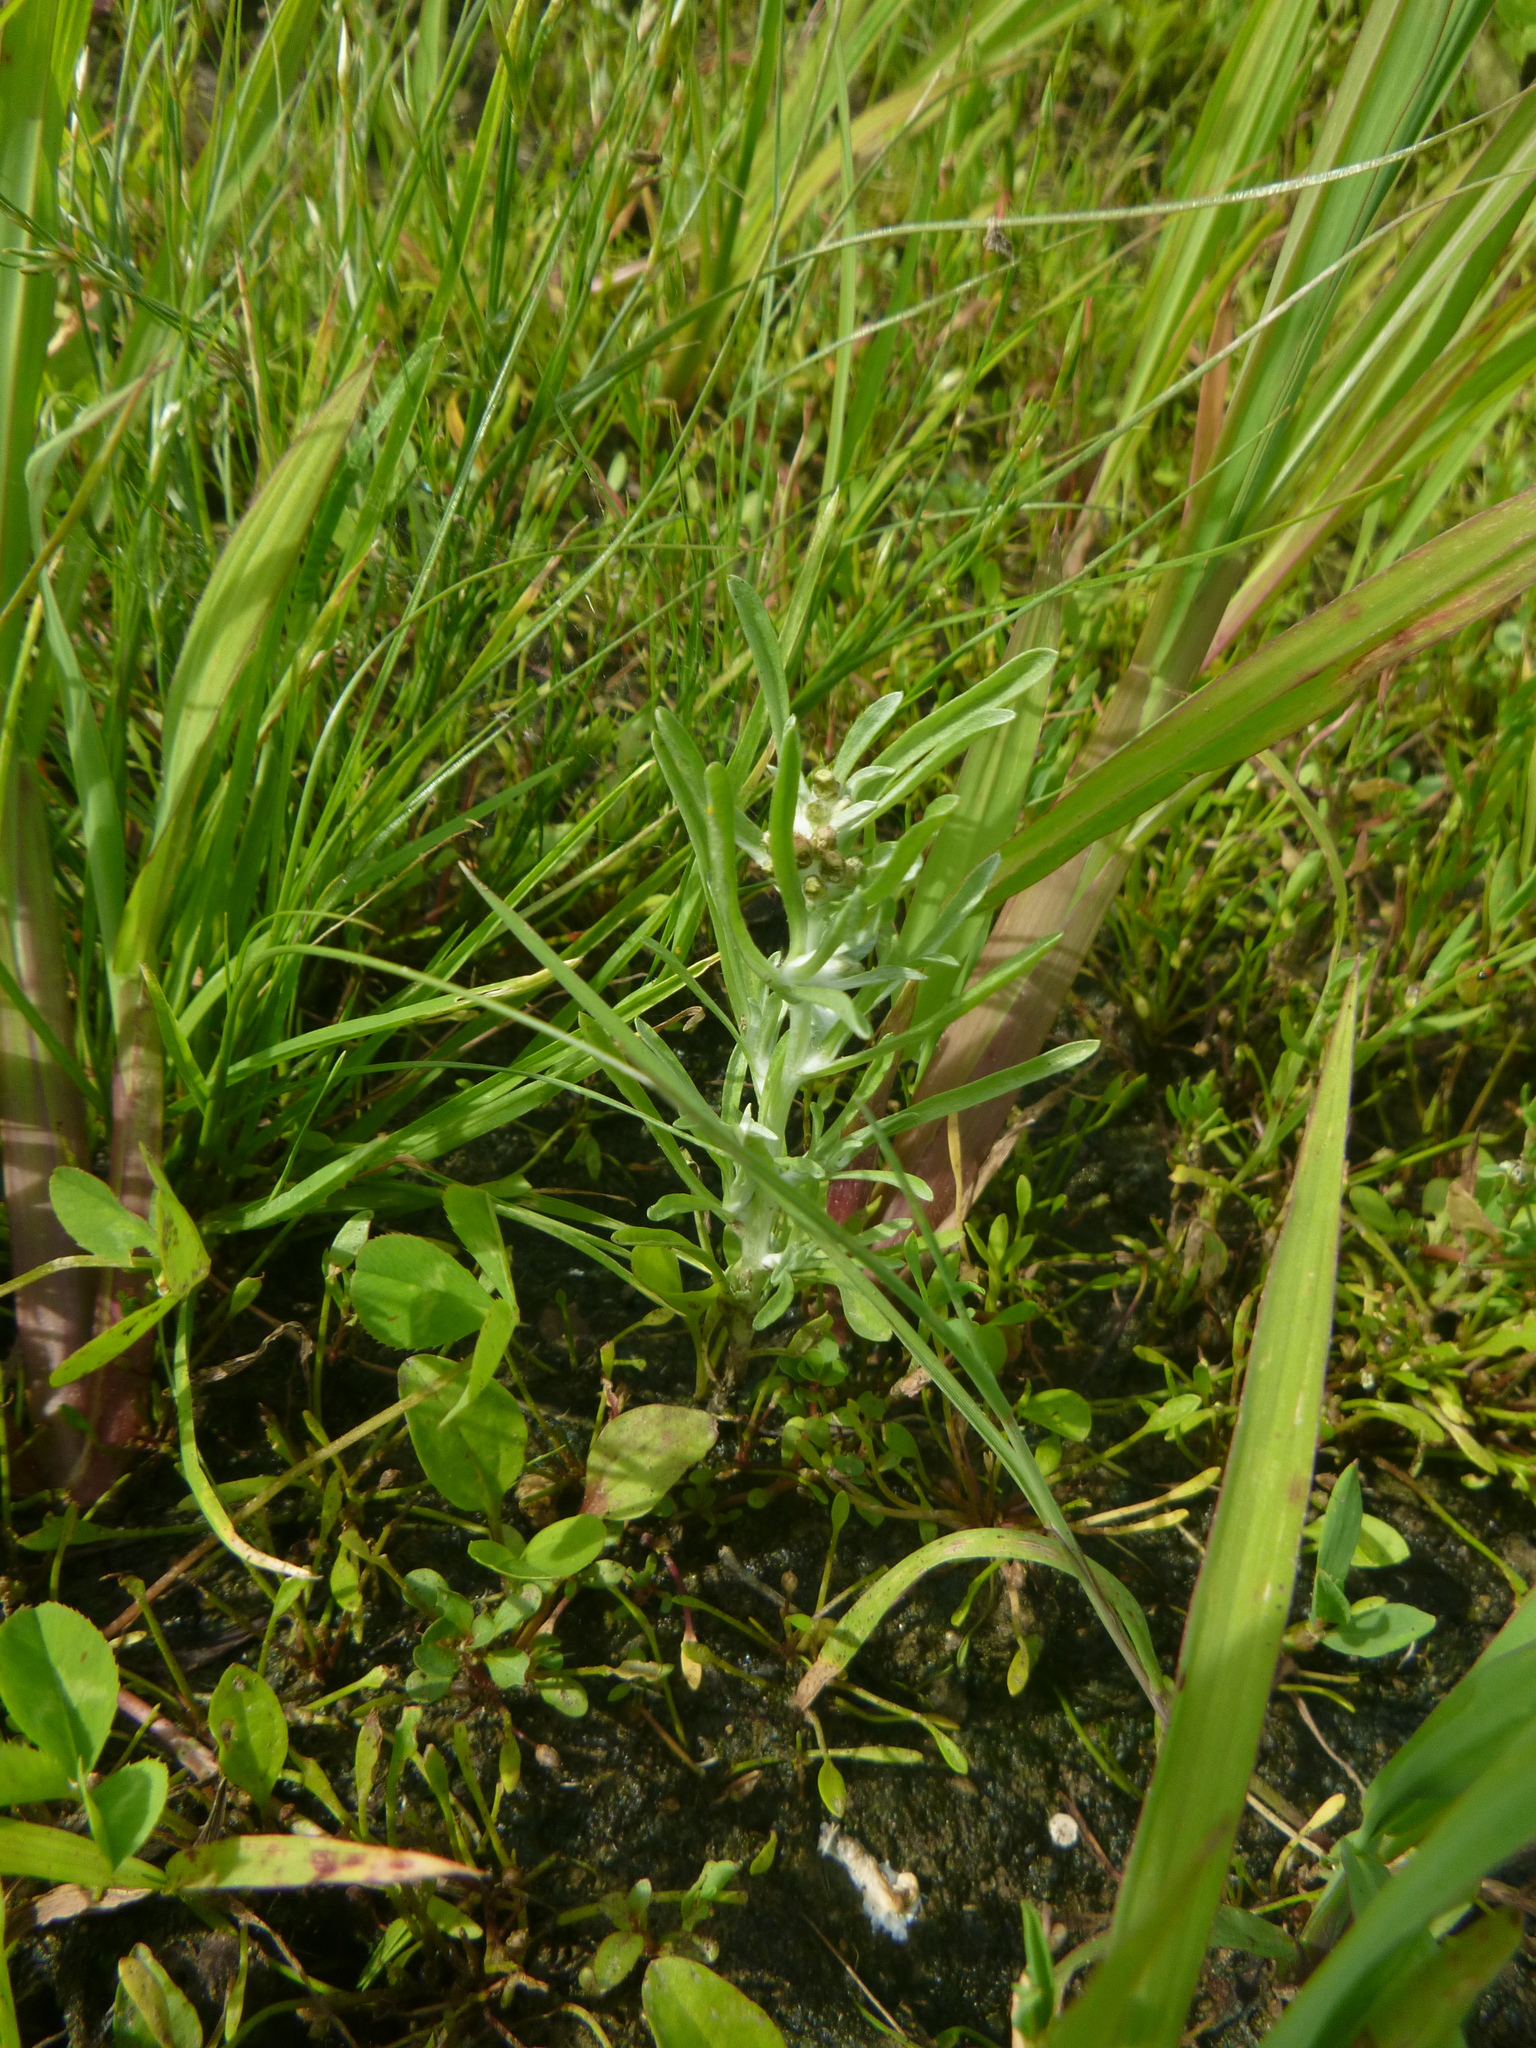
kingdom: Plantae
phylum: Tracheophyta
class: Magnoliopsida
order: Asterales
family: Asteraceae
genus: Gnaphalium
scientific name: Gnaphalium uliginosum
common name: Marsh cudweed
